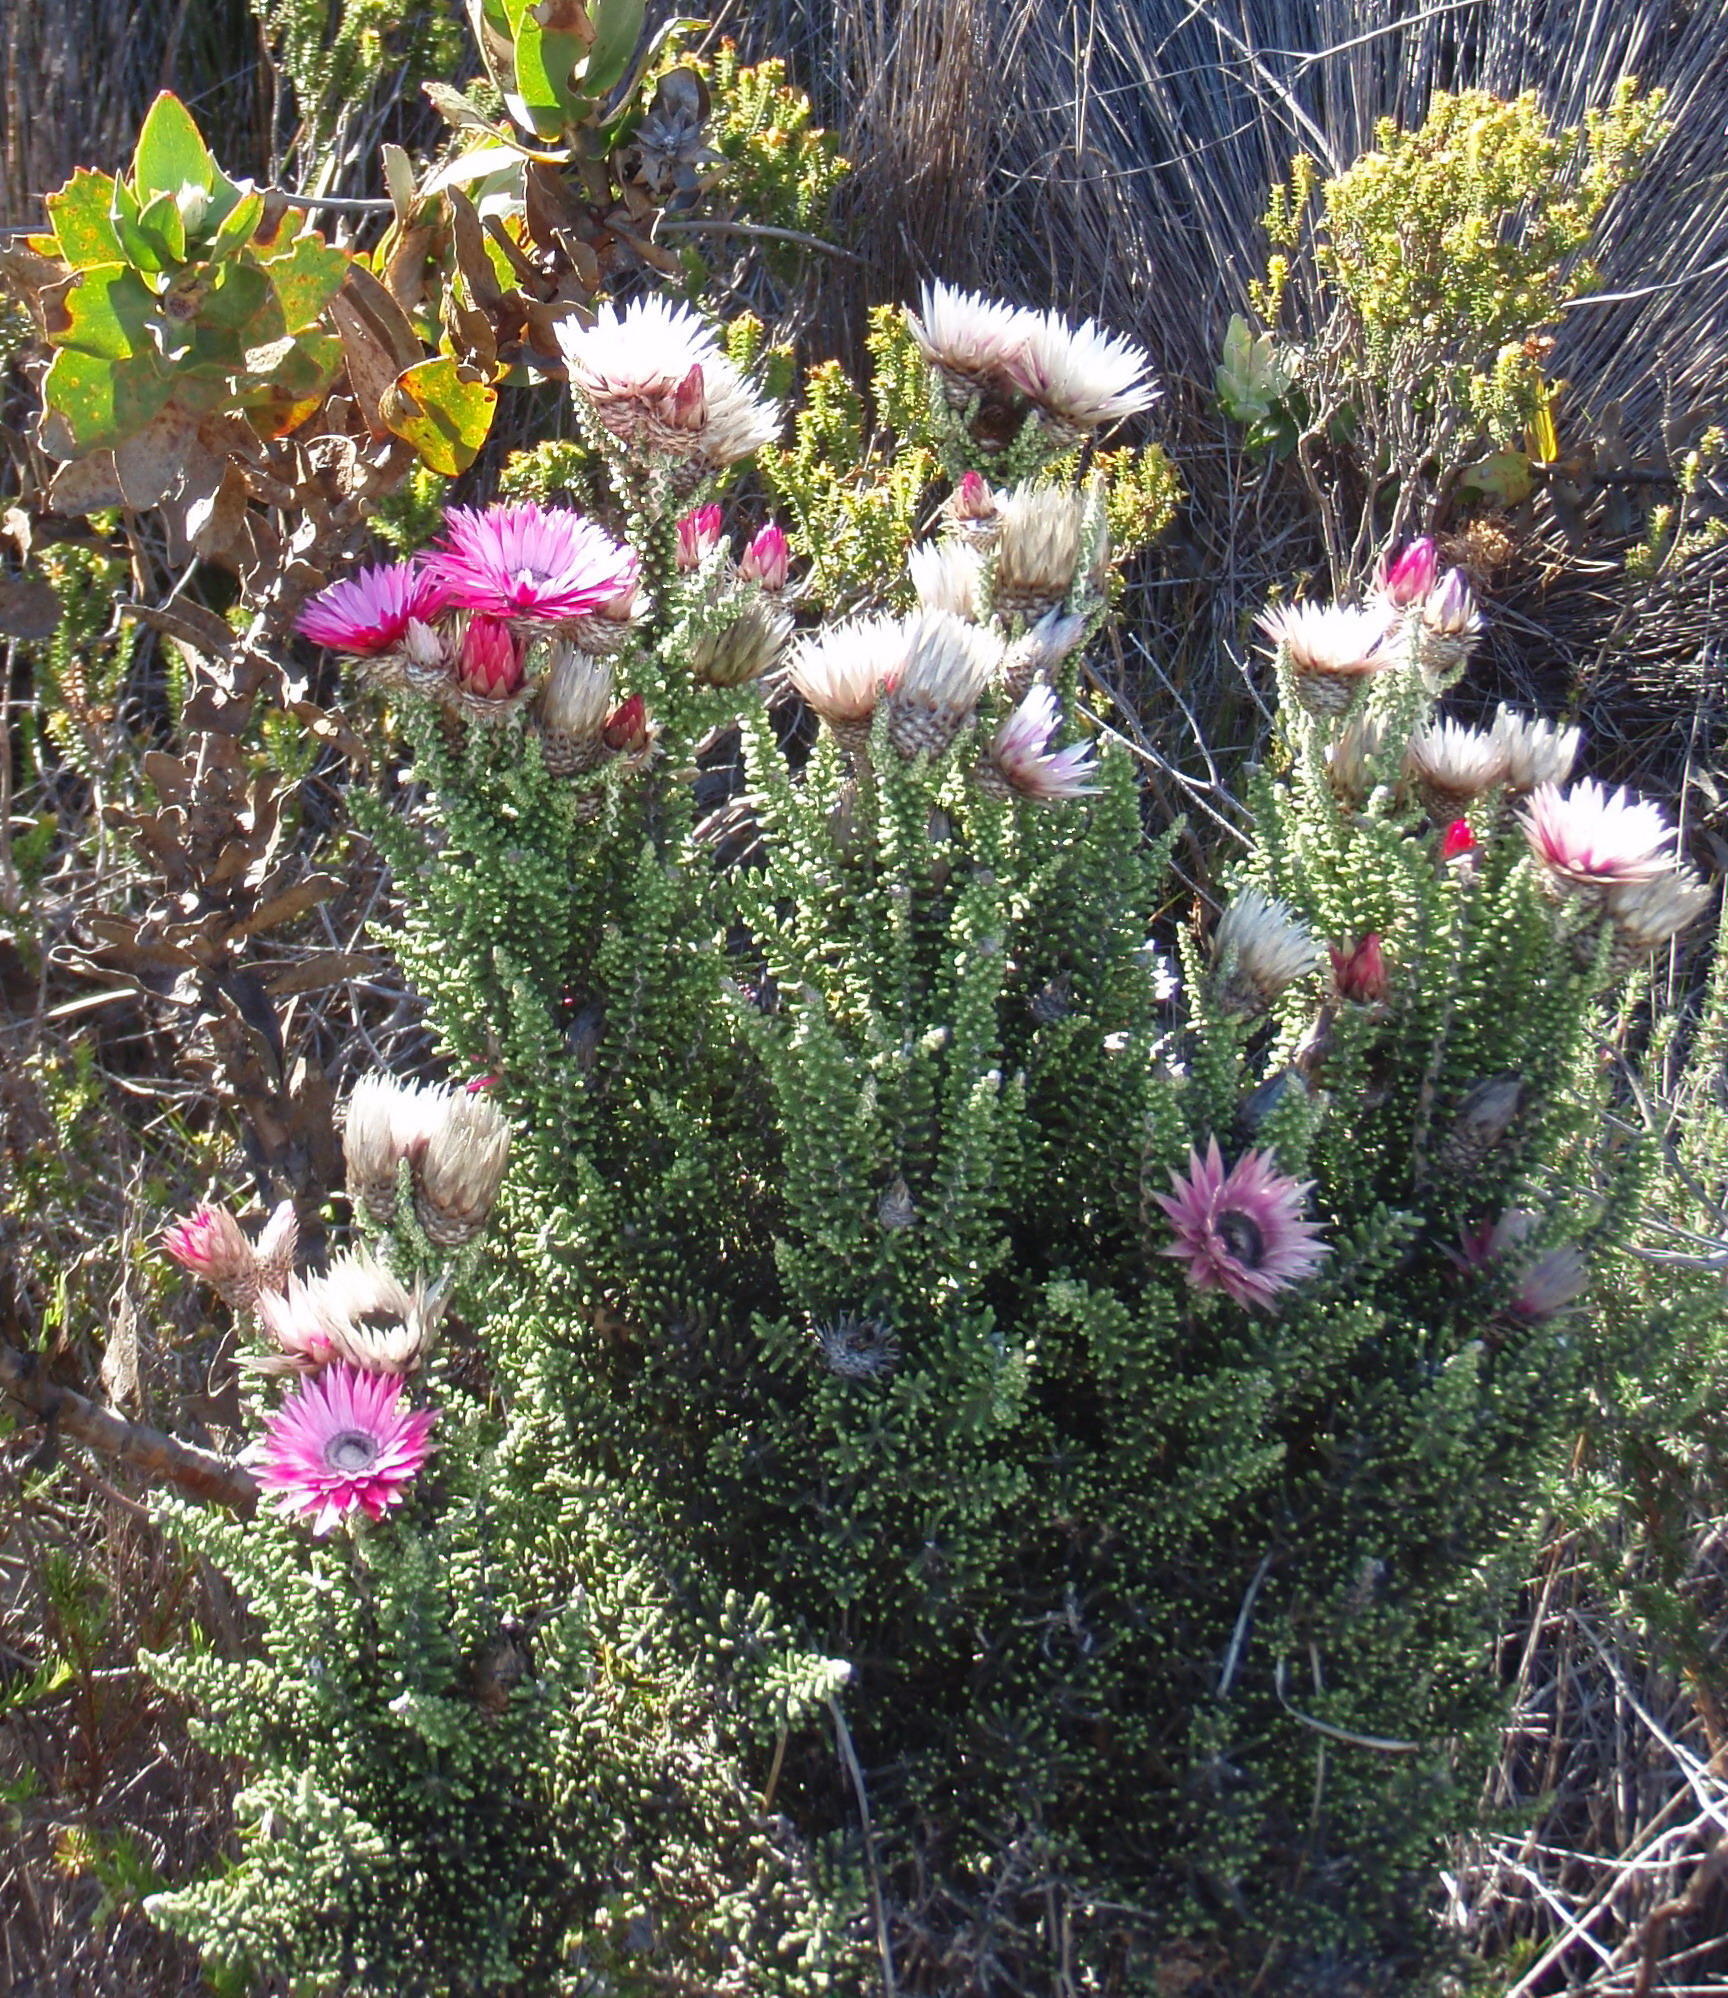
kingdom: Plantae
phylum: Tracheophyta
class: Magnoliopsida
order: Asterales
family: Asteraceae
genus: Phaenocoma
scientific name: Phaenocoma prolifera
